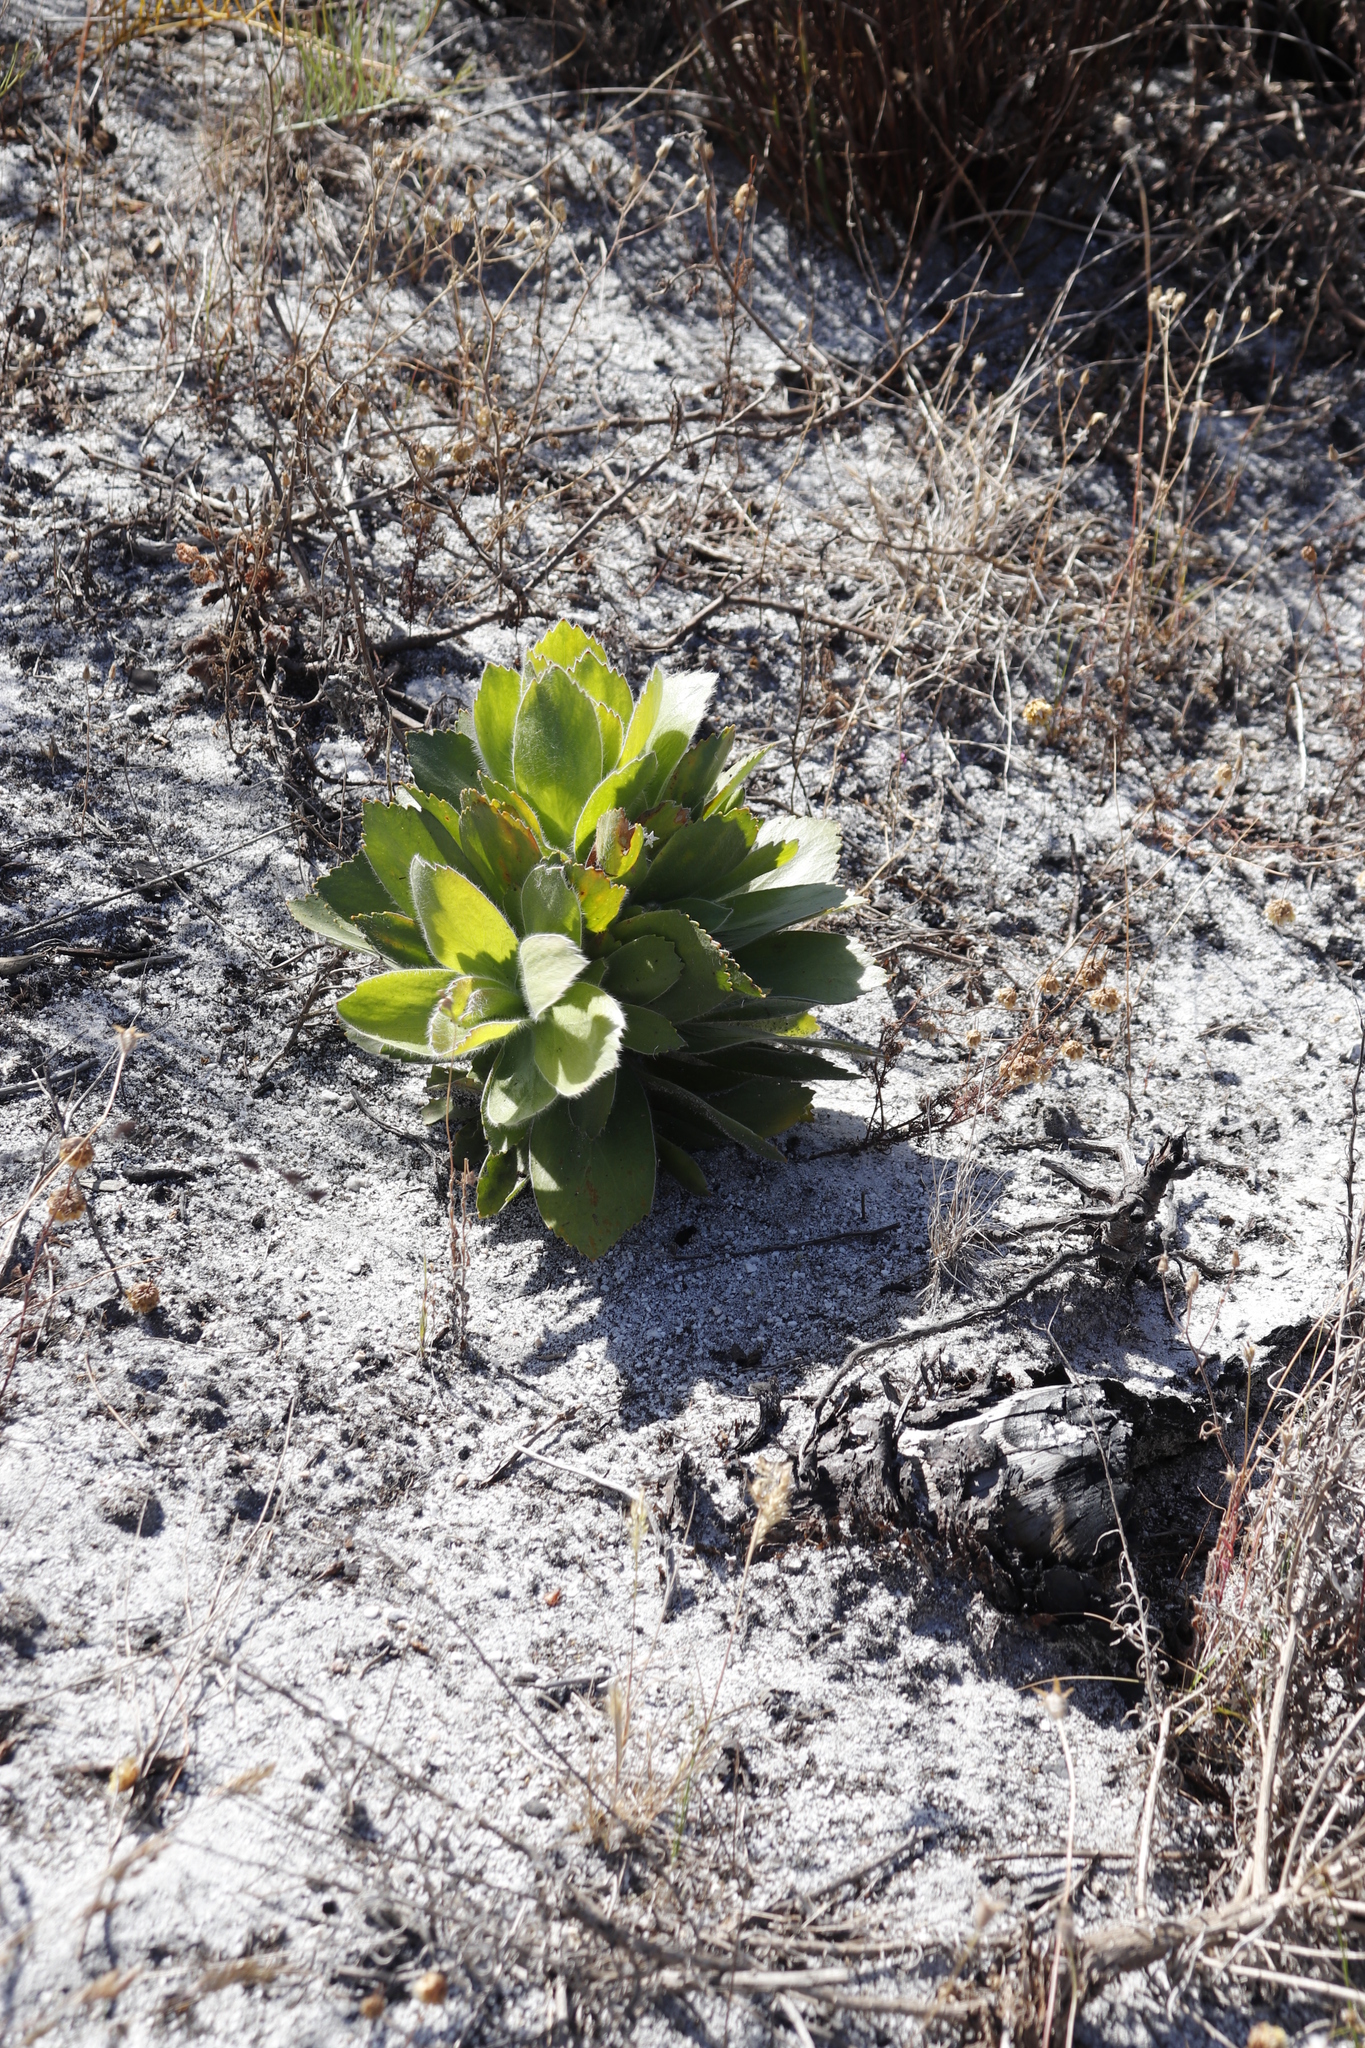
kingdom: Plantae
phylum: Tracheophyta
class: Magnoliopsida
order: Proteales
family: Proteaceae
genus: Leucospermum
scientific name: Leucospermum conocarpodendron
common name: Tree pincushion
